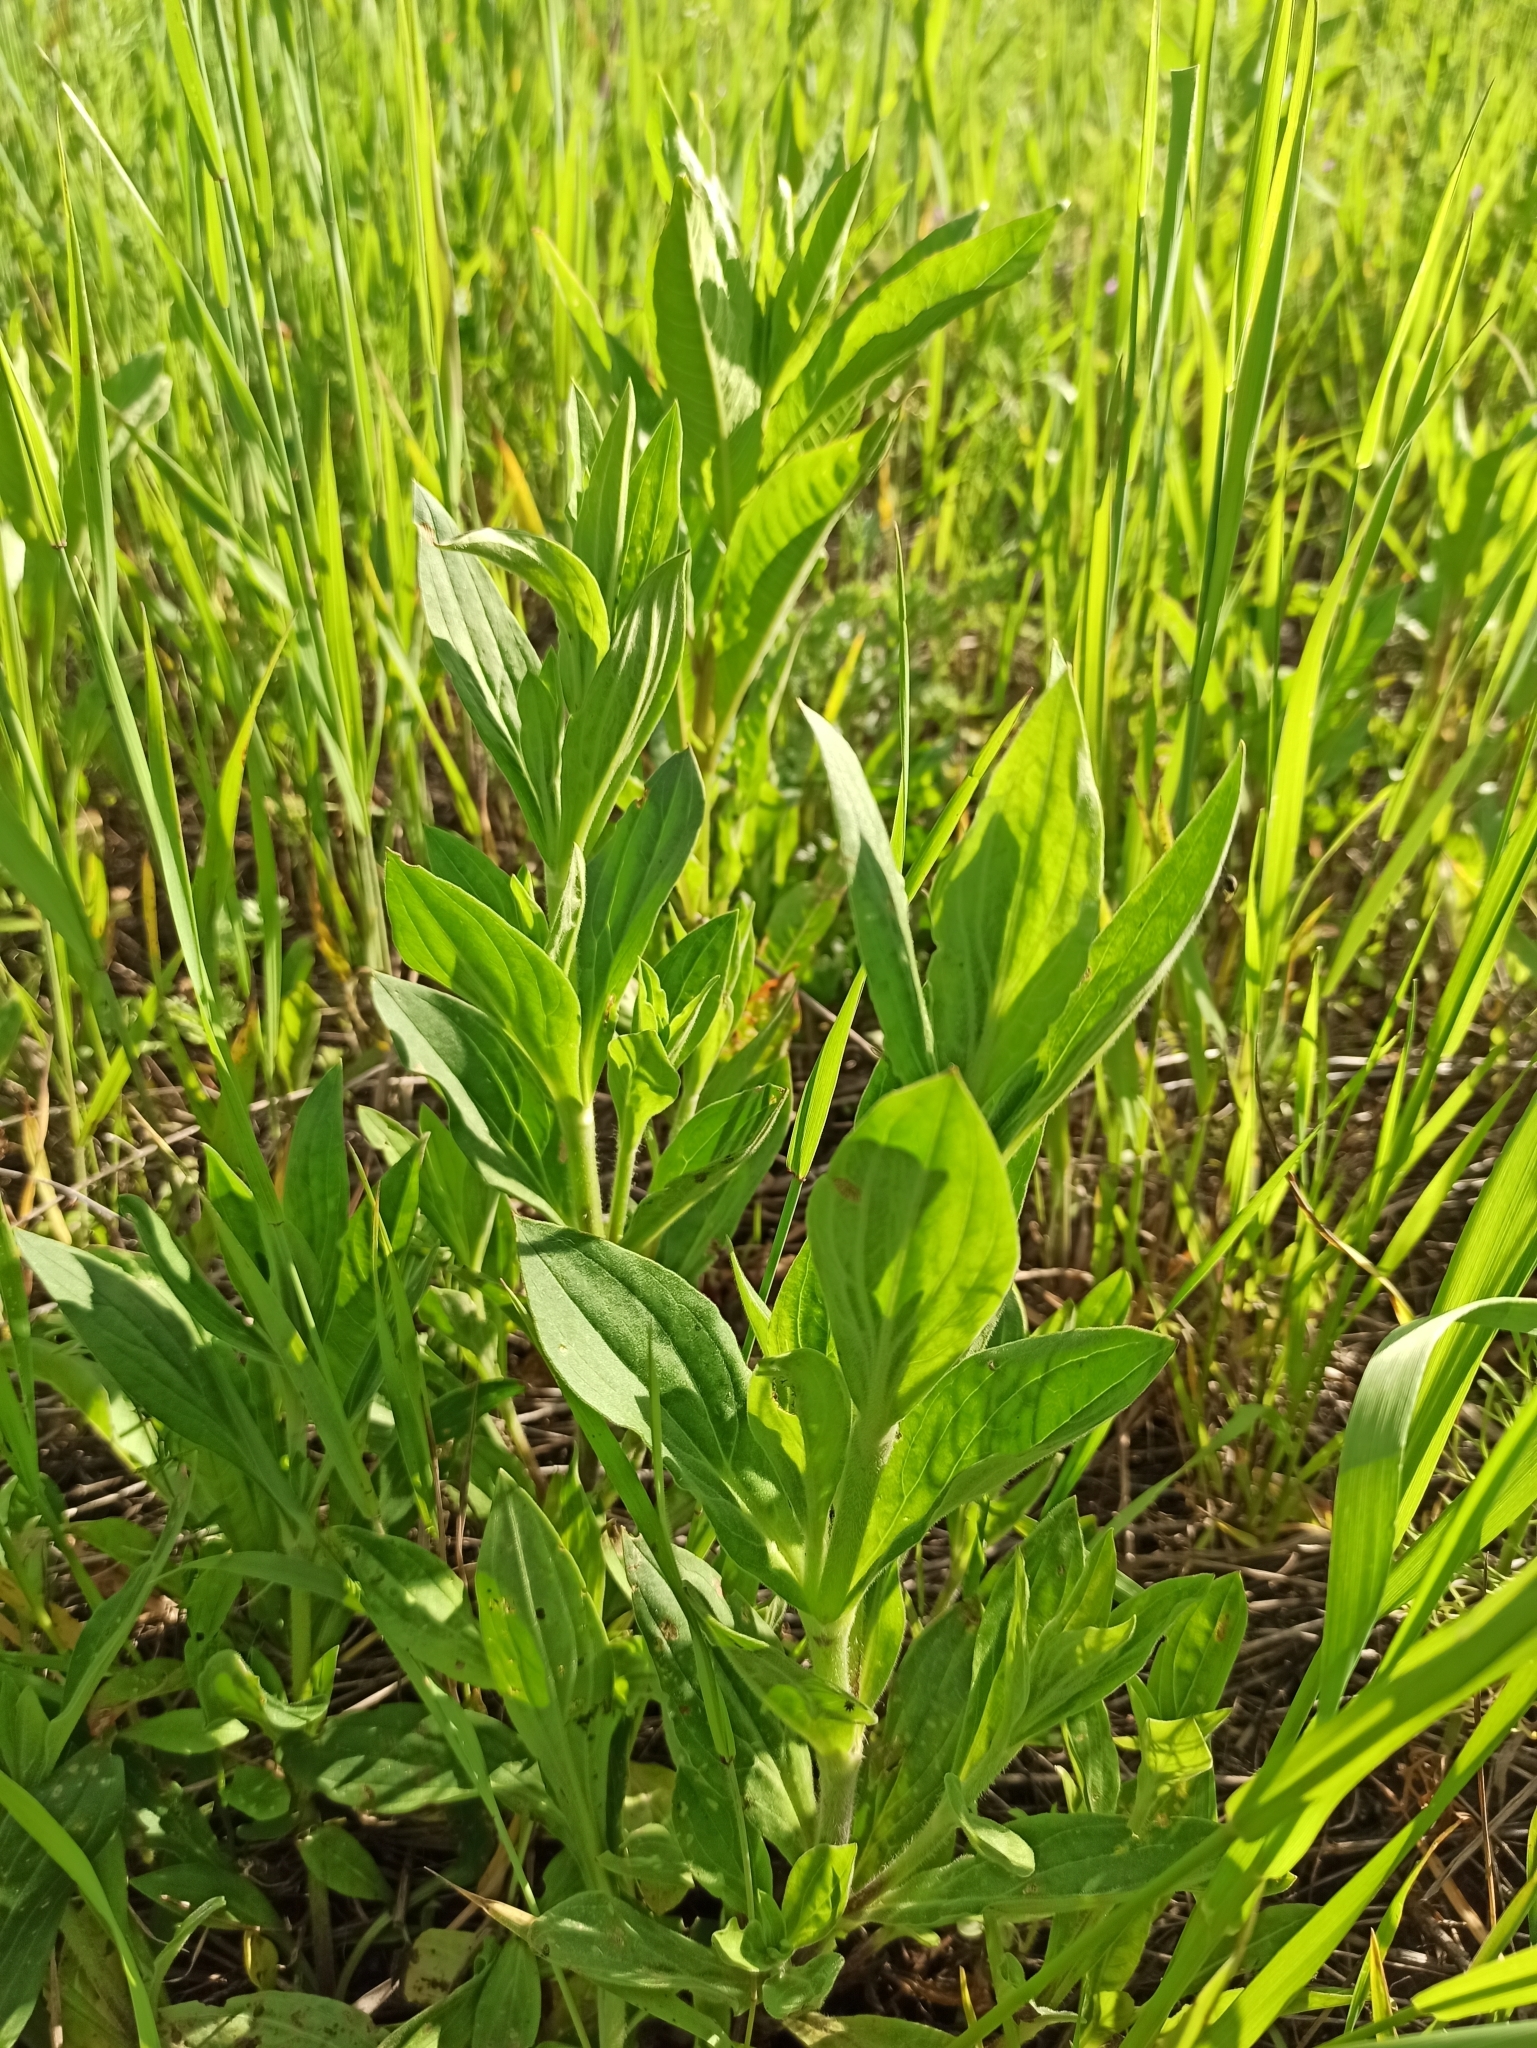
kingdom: Plantae
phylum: Tracheophyta
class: Magnoliopsida
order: Caryophyllales
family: Caryophyllaceae
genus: Silene
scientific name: Silene latifolia
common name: White campion
